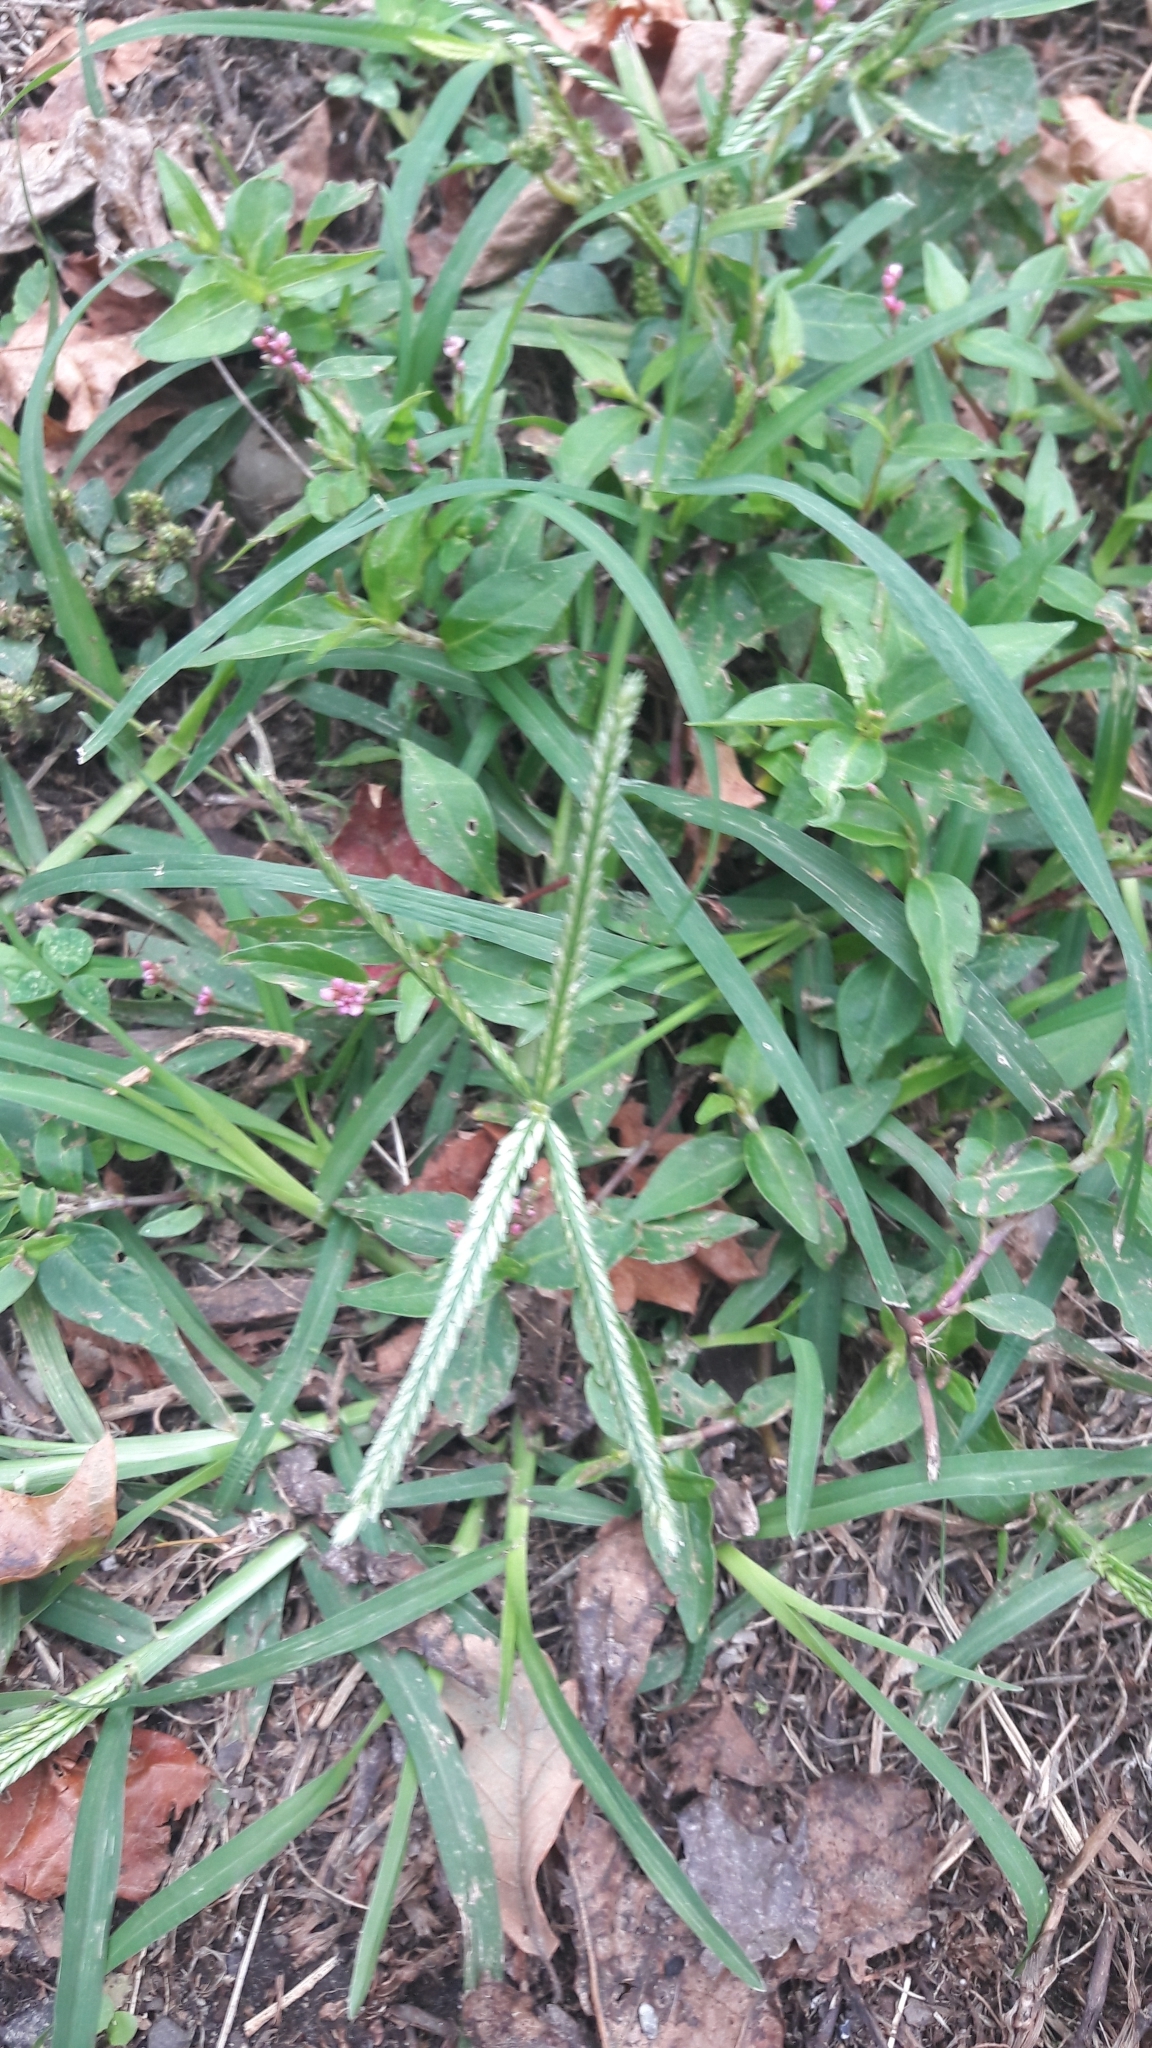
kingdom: Plantae
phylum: Tracheophyta
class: Liliopsida
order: Poales
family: Poaceae
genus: Eleusine
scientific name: Eleusine indica
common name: Yard-grass
